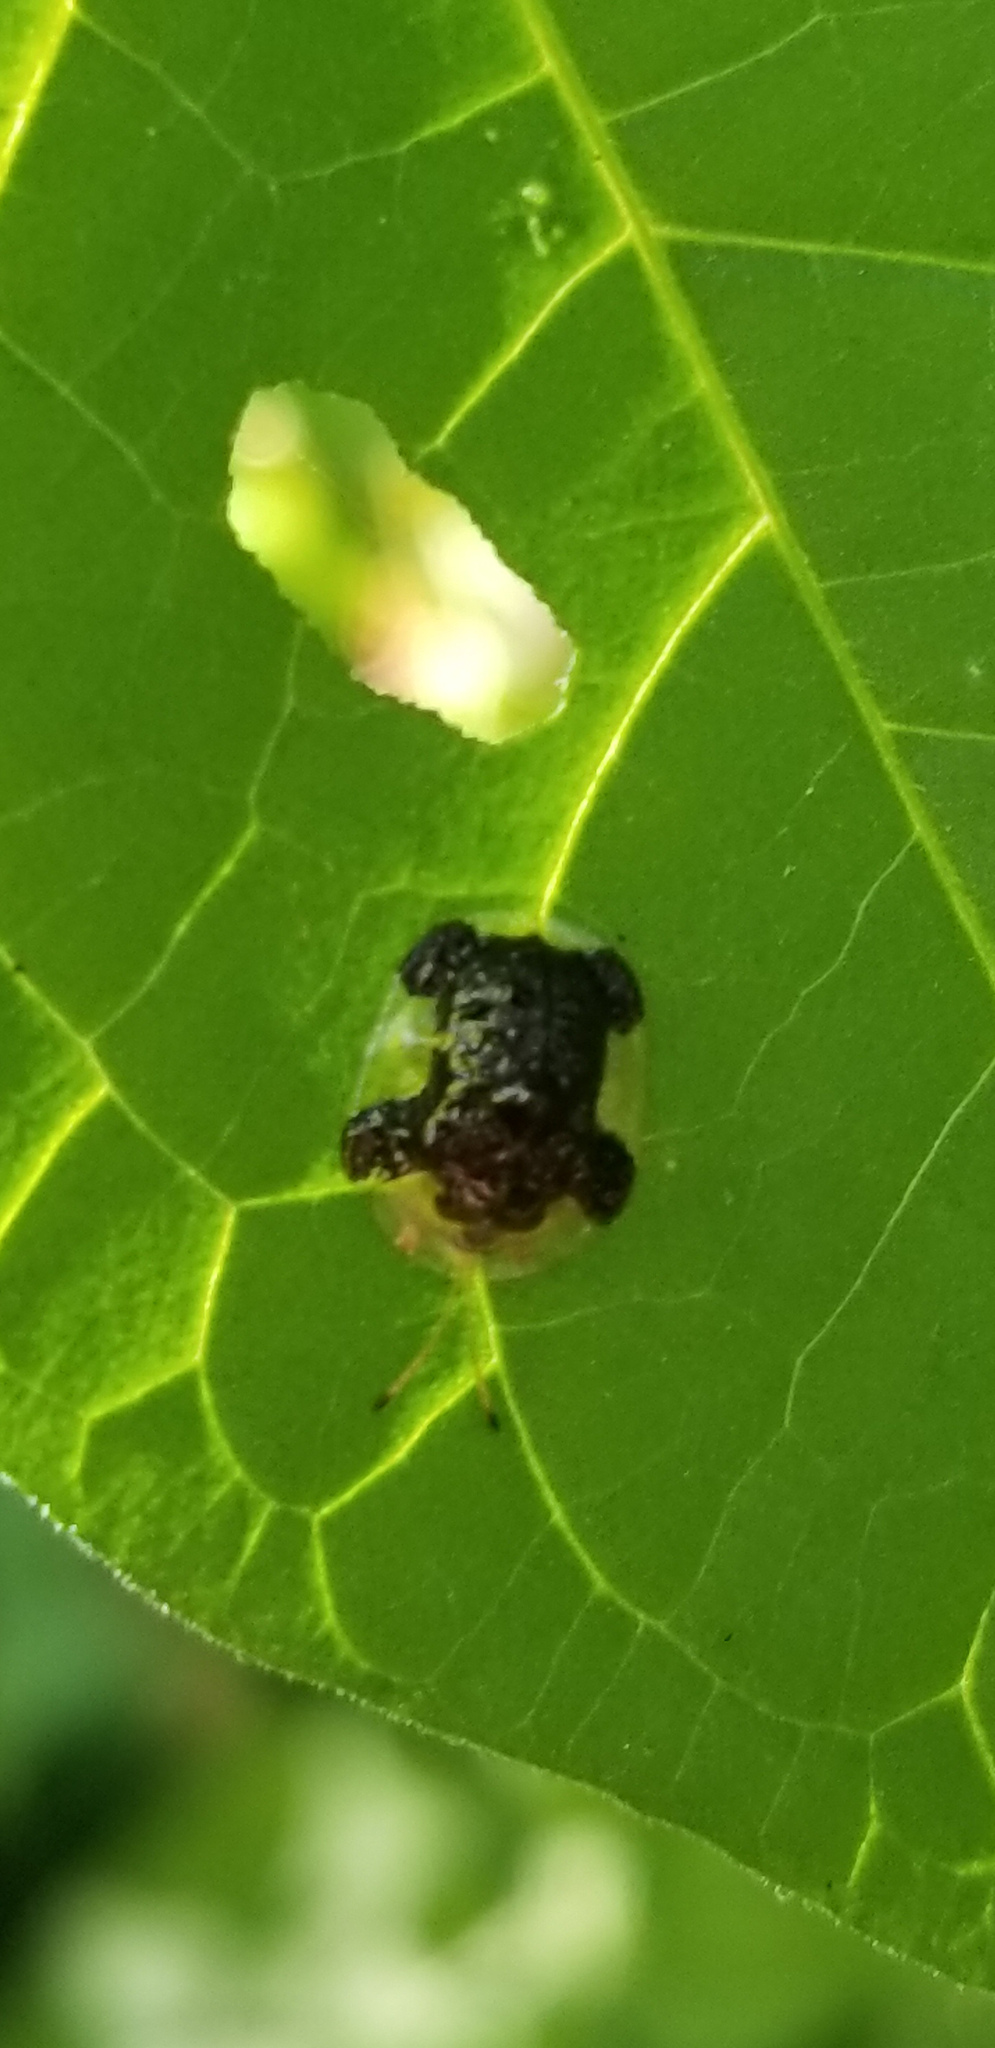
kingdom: Animalia
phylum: Arthropoda
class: Insecta
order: Coleoptera
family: Chrysomelidae
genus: Helocassis
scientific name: Helocassis clavata
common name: Clavate tortoise beetle
